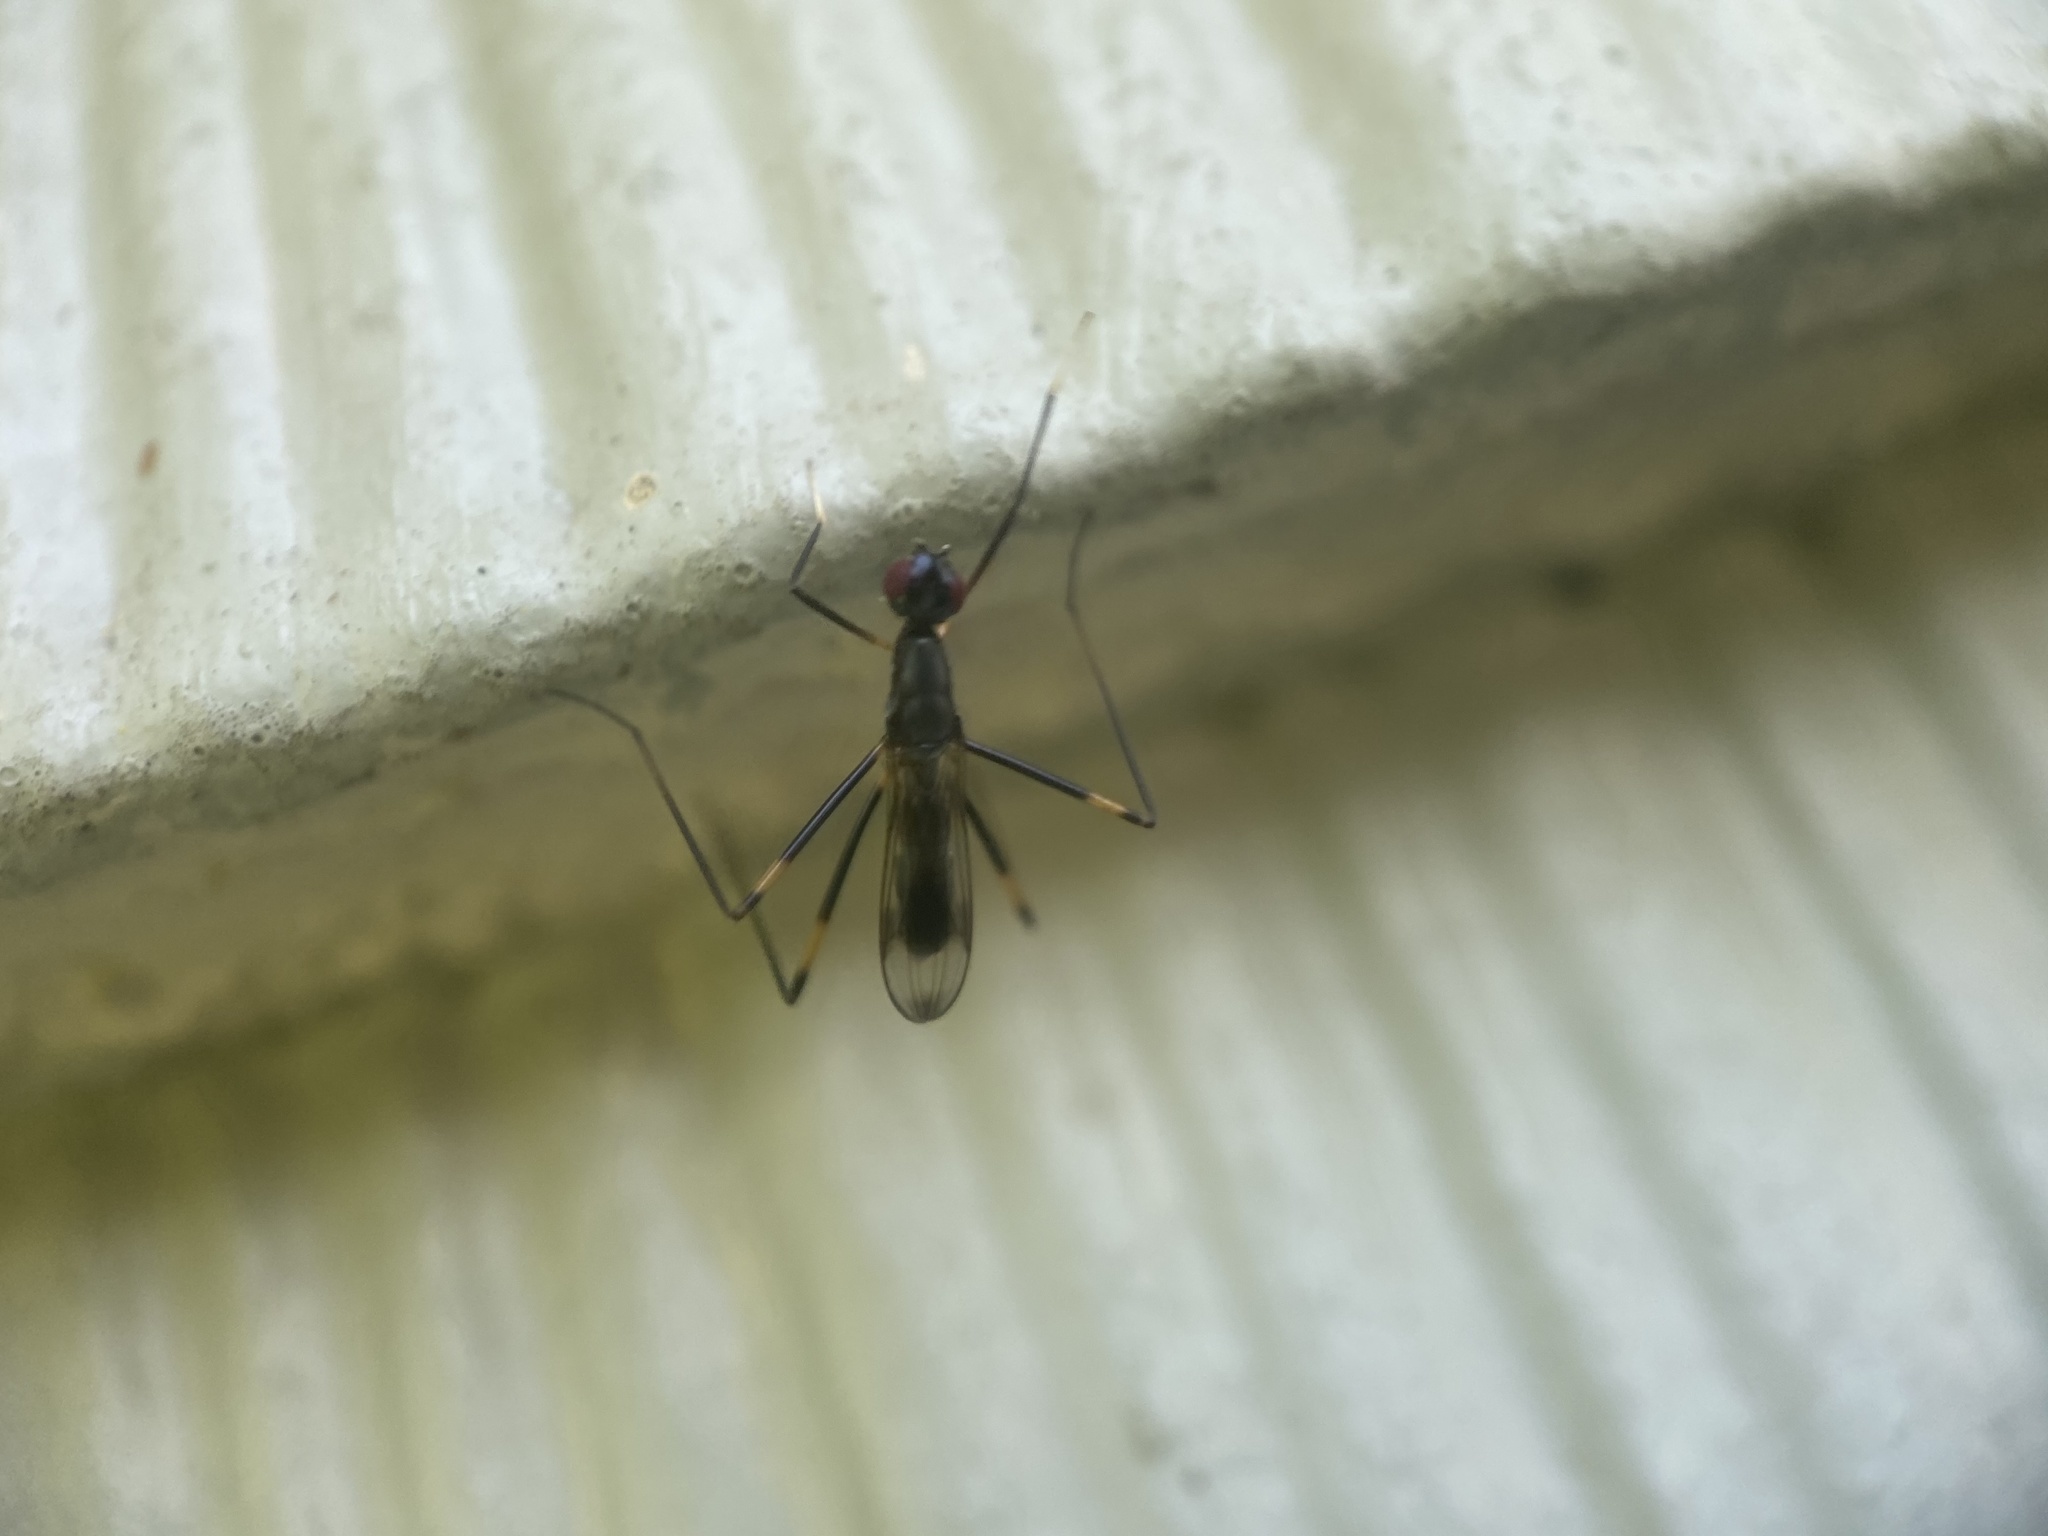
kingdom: Animalia
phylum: Arthropoda
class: Insecta
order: Diptera
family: Micropezidae
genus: Rainieria
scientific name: Rainieria antennaepes
